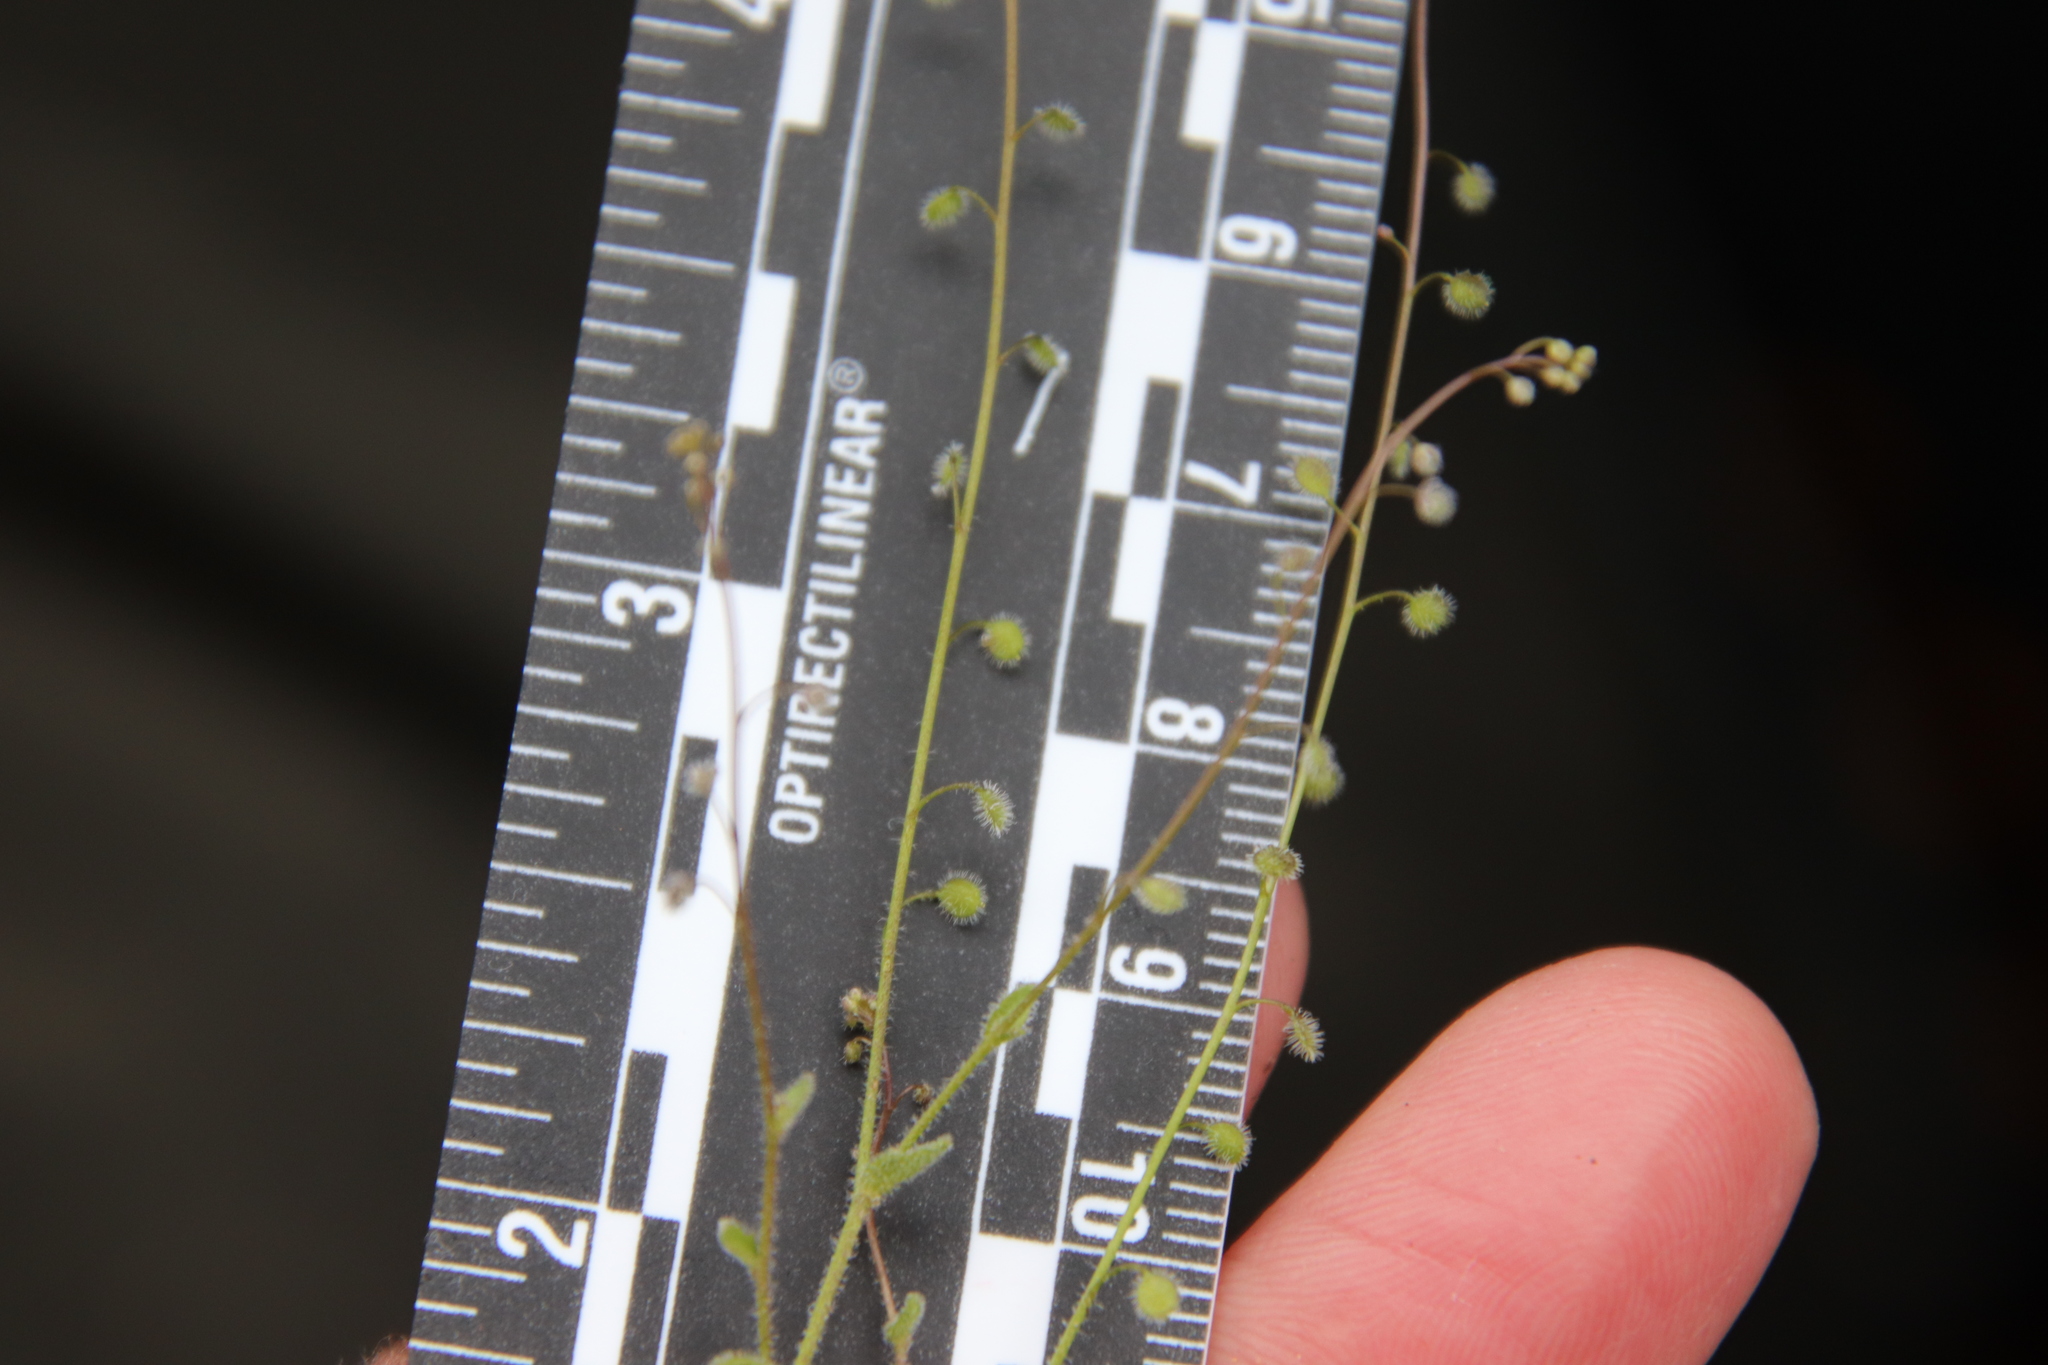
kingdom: Plantae
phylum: Tracheophyta
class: Magnoliopsida
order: Brassicales
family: Brassicaceae
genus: Athysanus
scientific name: Athysanus pusillus
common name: Common sandweed
